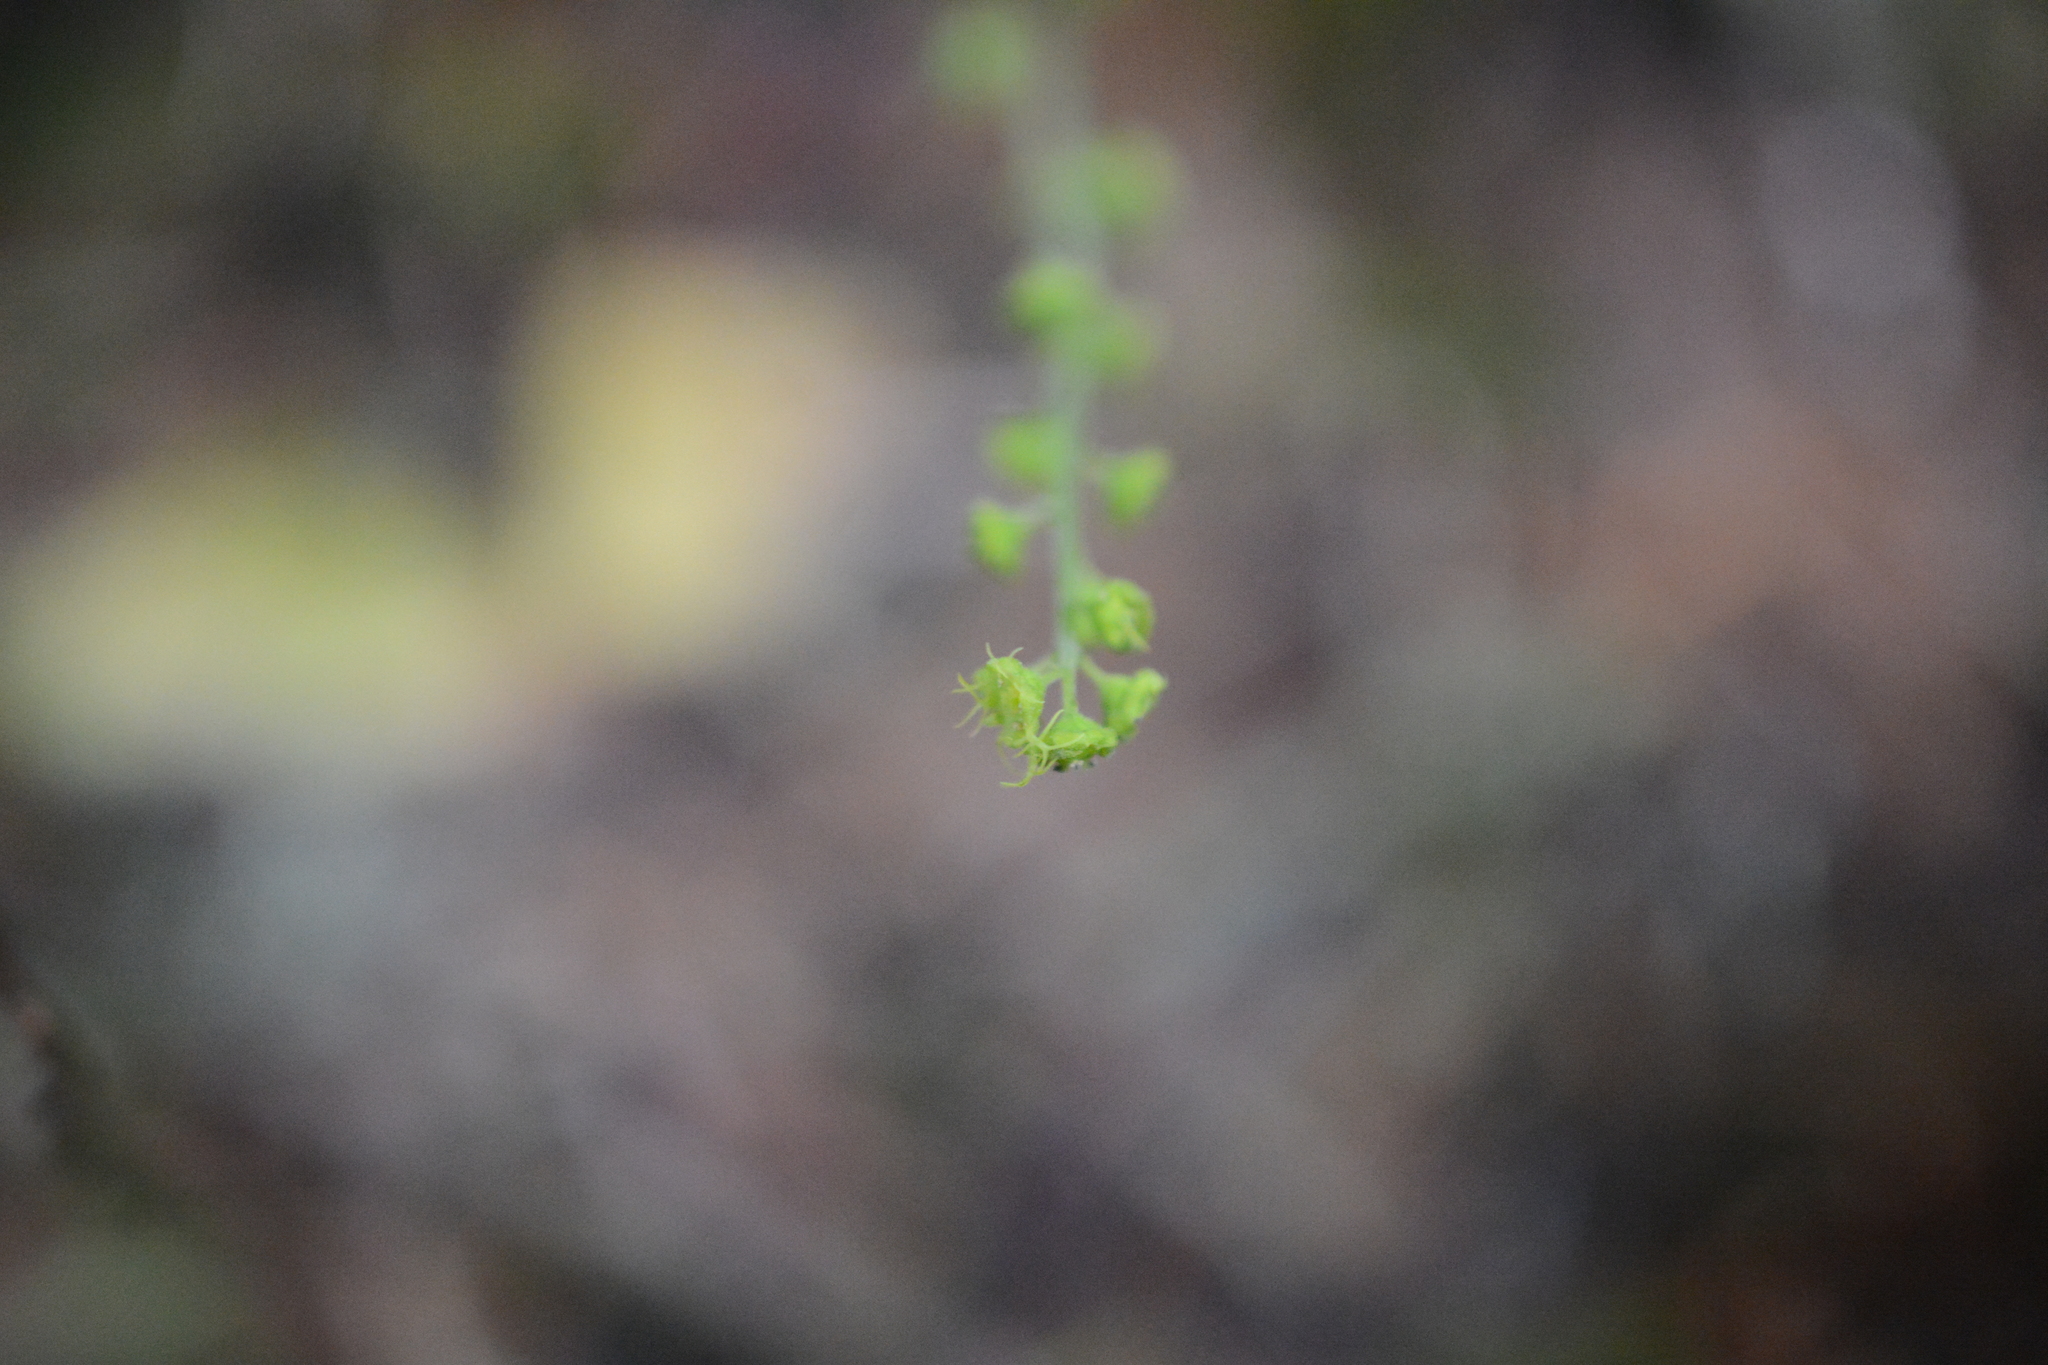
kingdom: Plantae
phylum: Tracheophyta
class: Magnoliopsida
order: Saxifragales
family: Saxifragaceae
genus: Brewerimitella
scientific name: Brewerimitella breweri
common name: Brewer's bishop's-cap
